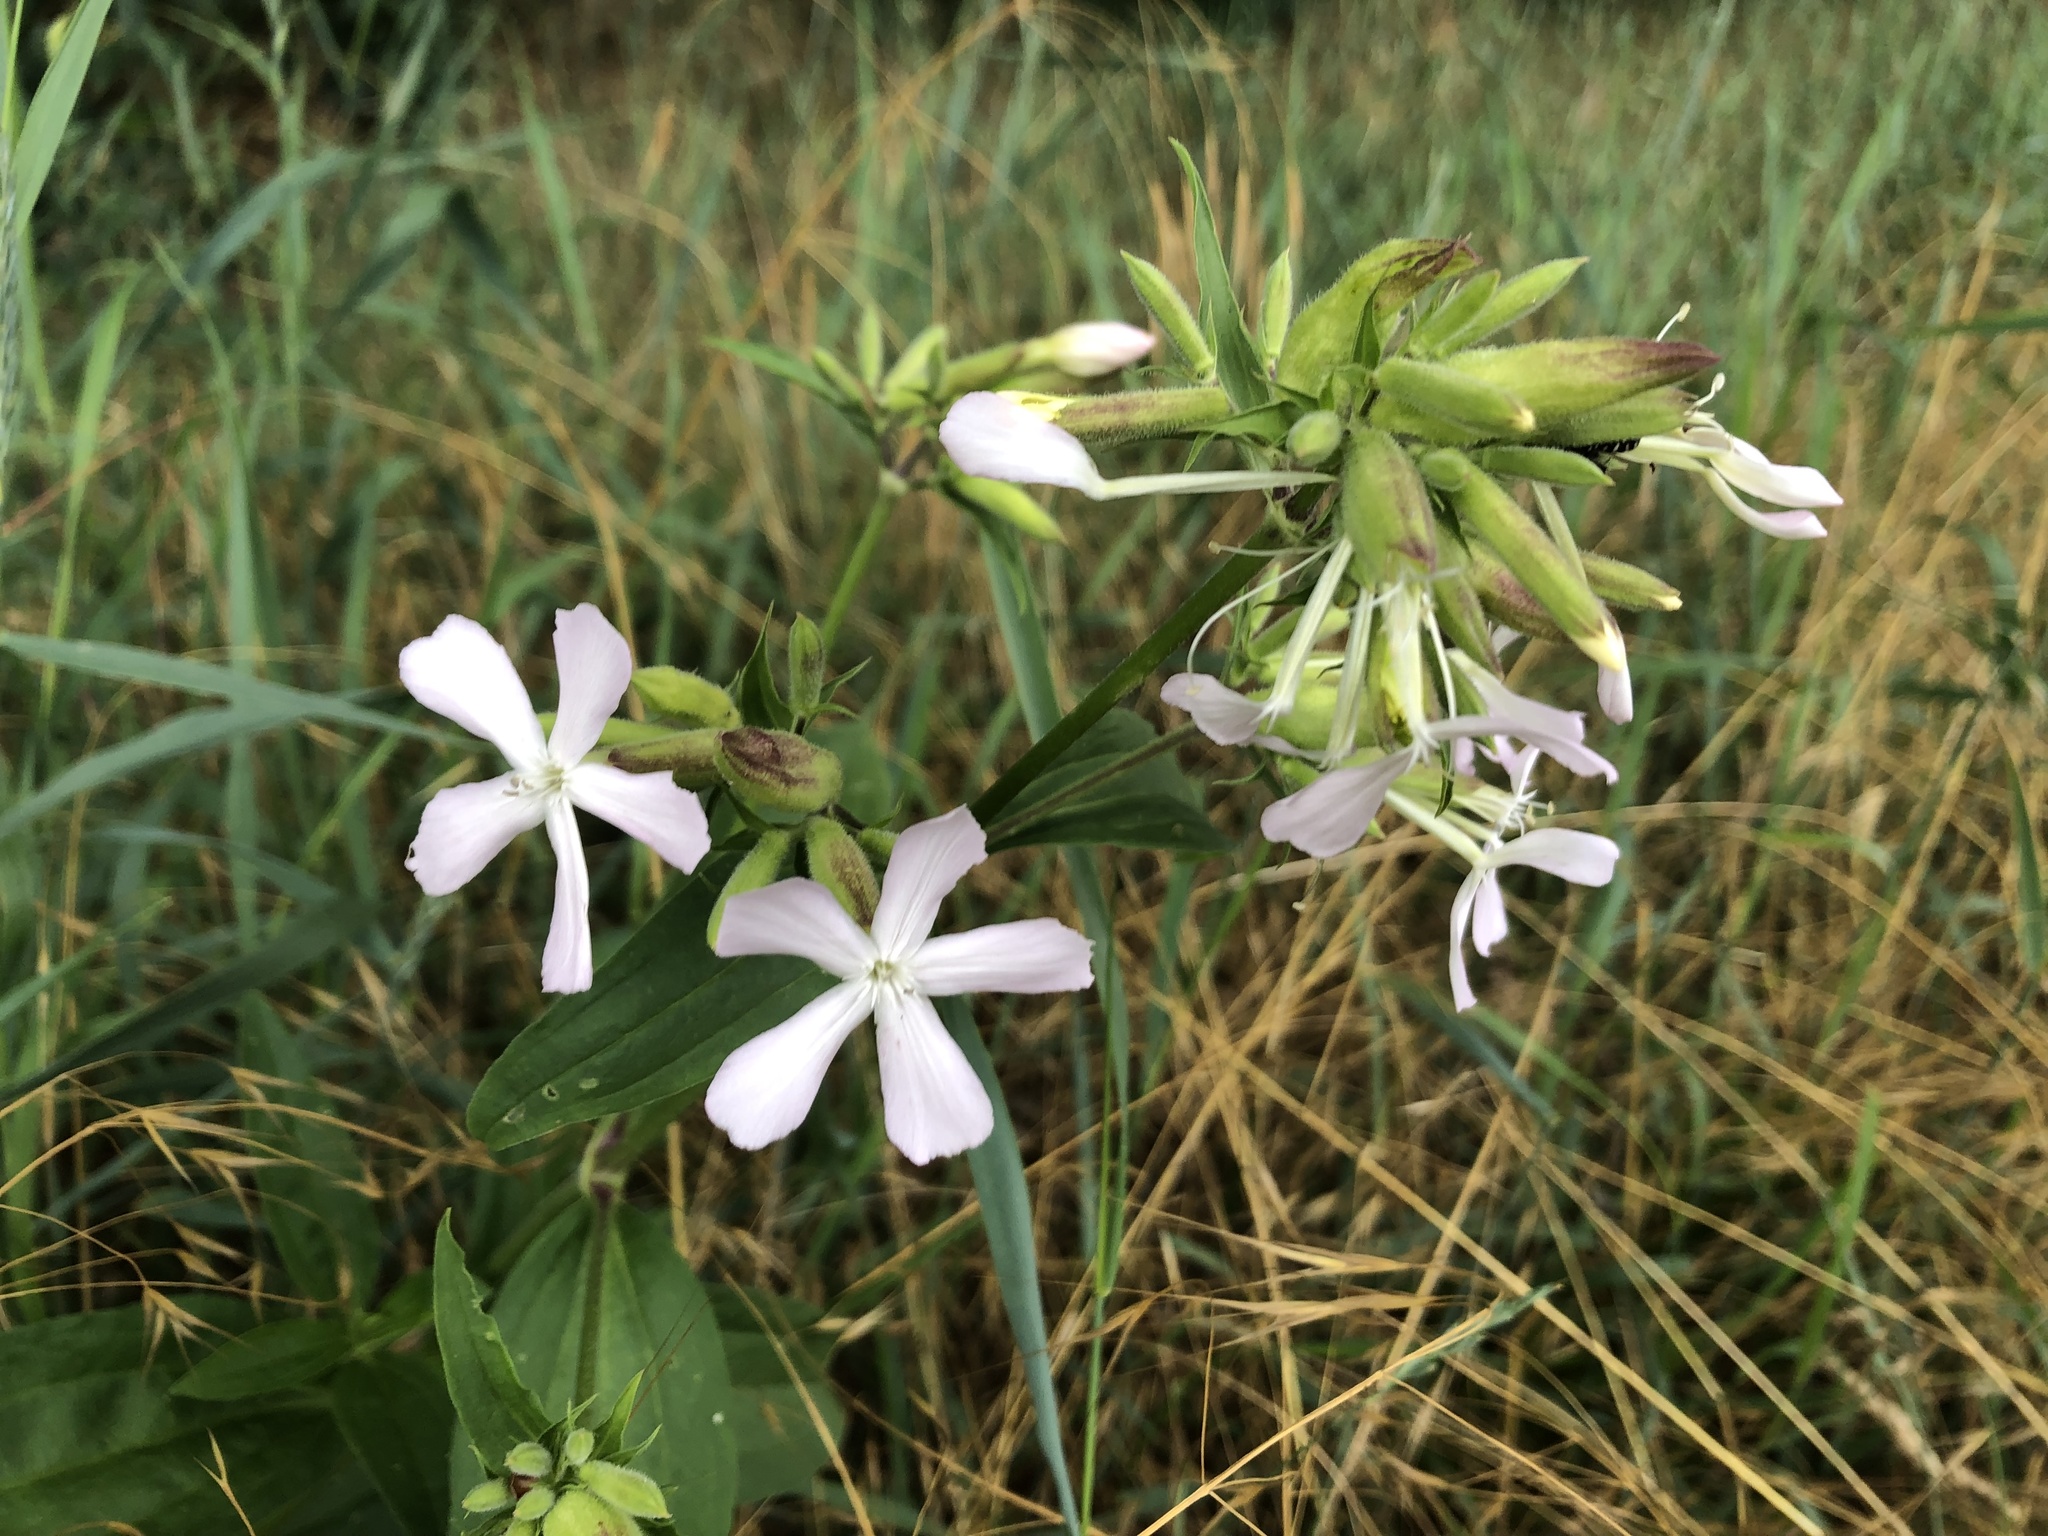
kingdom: Plantae
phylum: Tracheophyta
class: Magnoliopsida
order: Caryophyllales
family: Caryophyllaceae
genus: Saponaria
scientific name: Saponaria officinalis
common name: Soapwort
